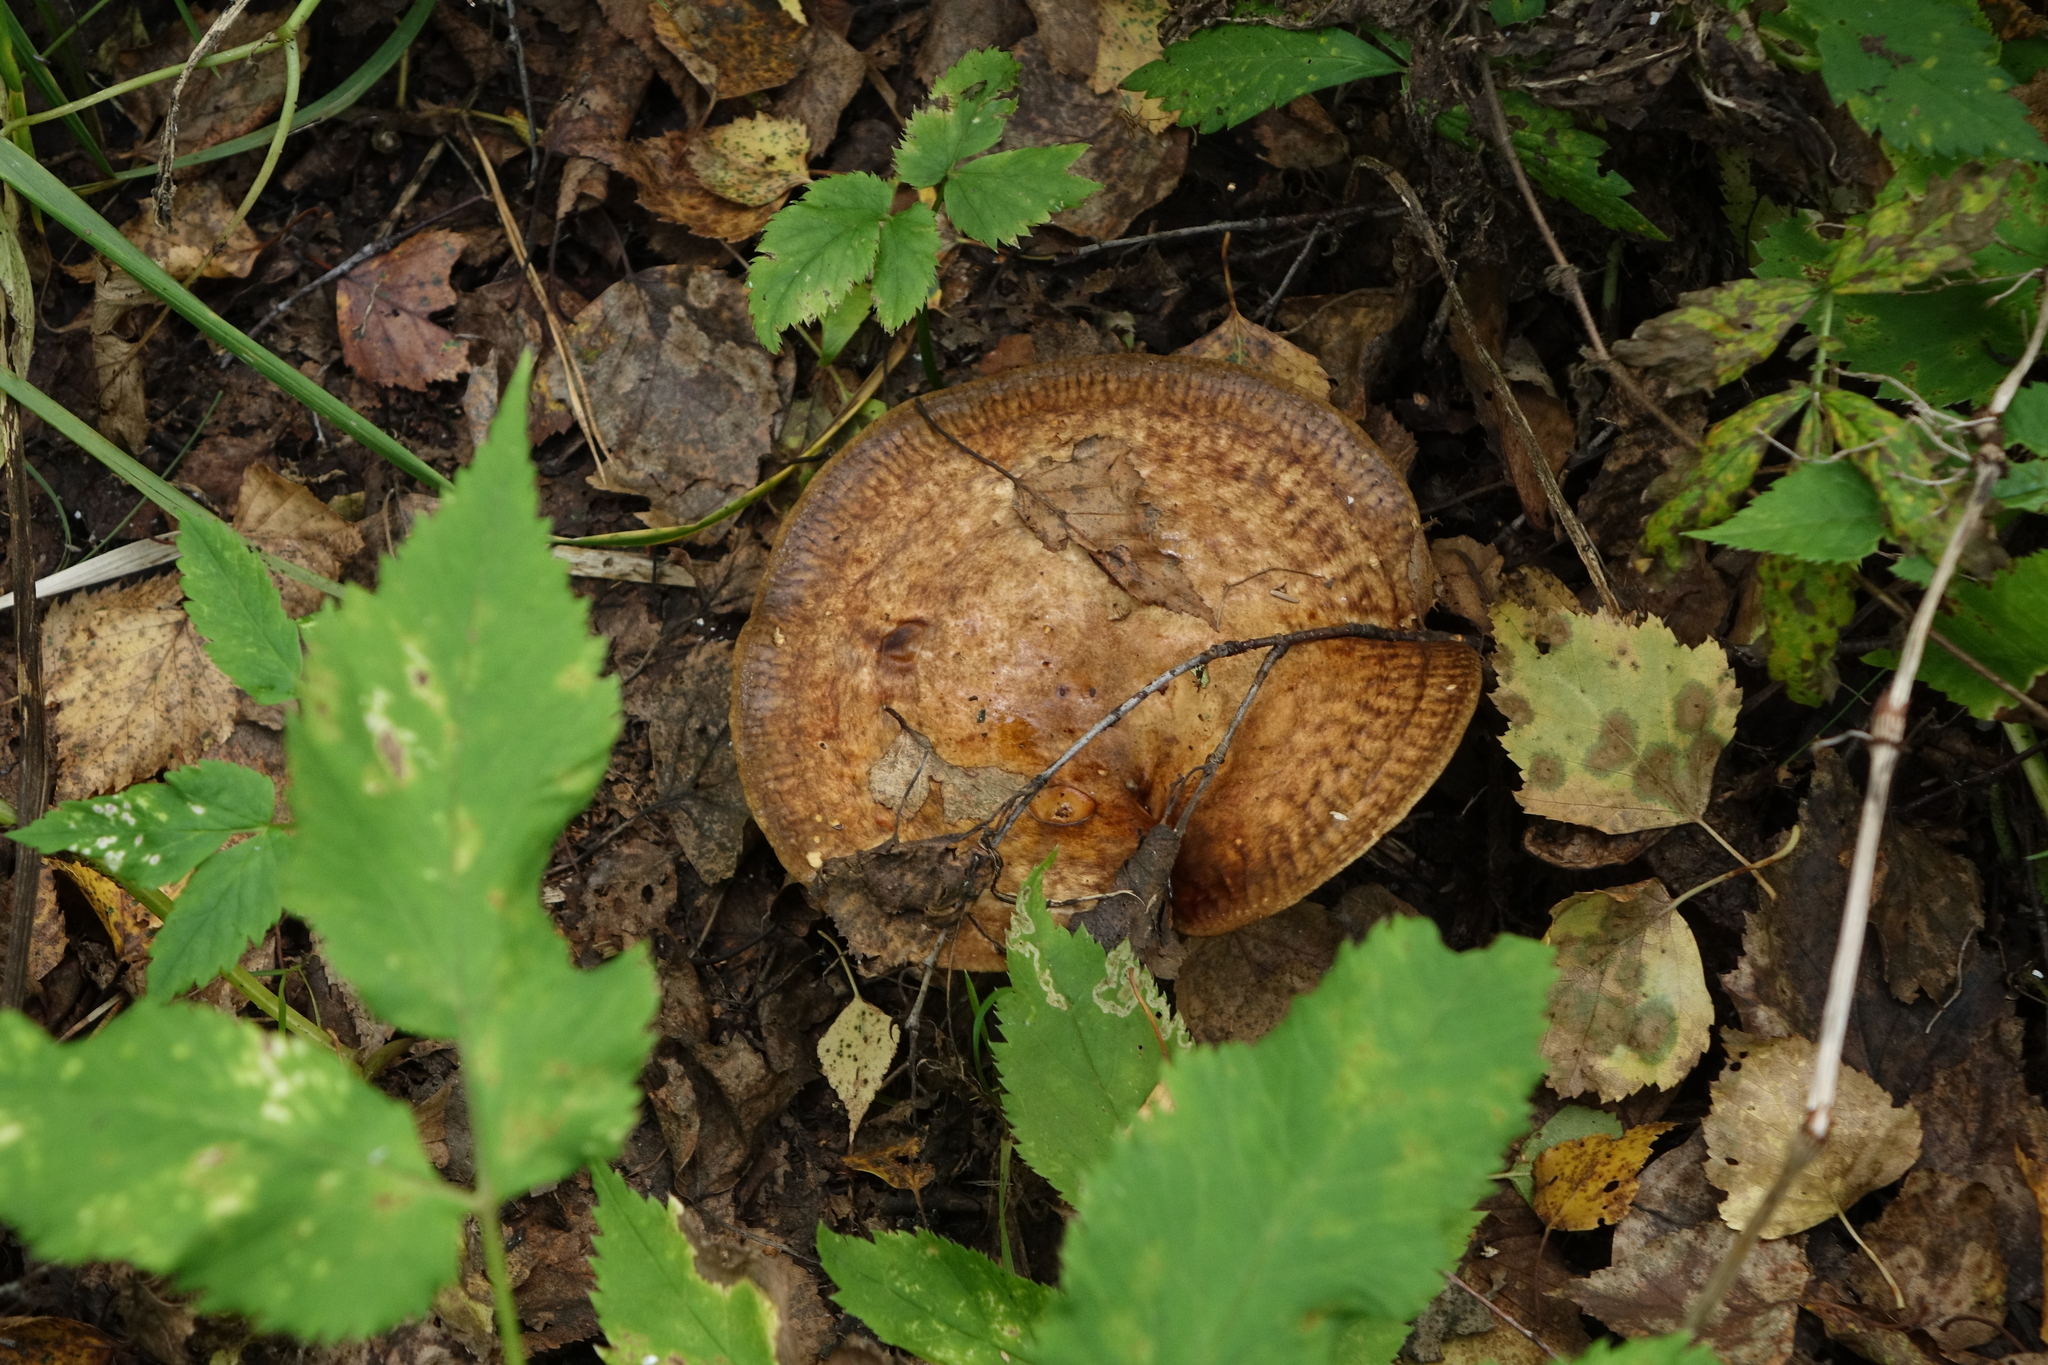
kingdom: Fungi
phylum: Basidiomycota
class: Agaricomycetes
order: Boletales
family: Paxillaceae
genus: Paxillus
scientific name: Paxillus involutus
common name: Brown roll rim
